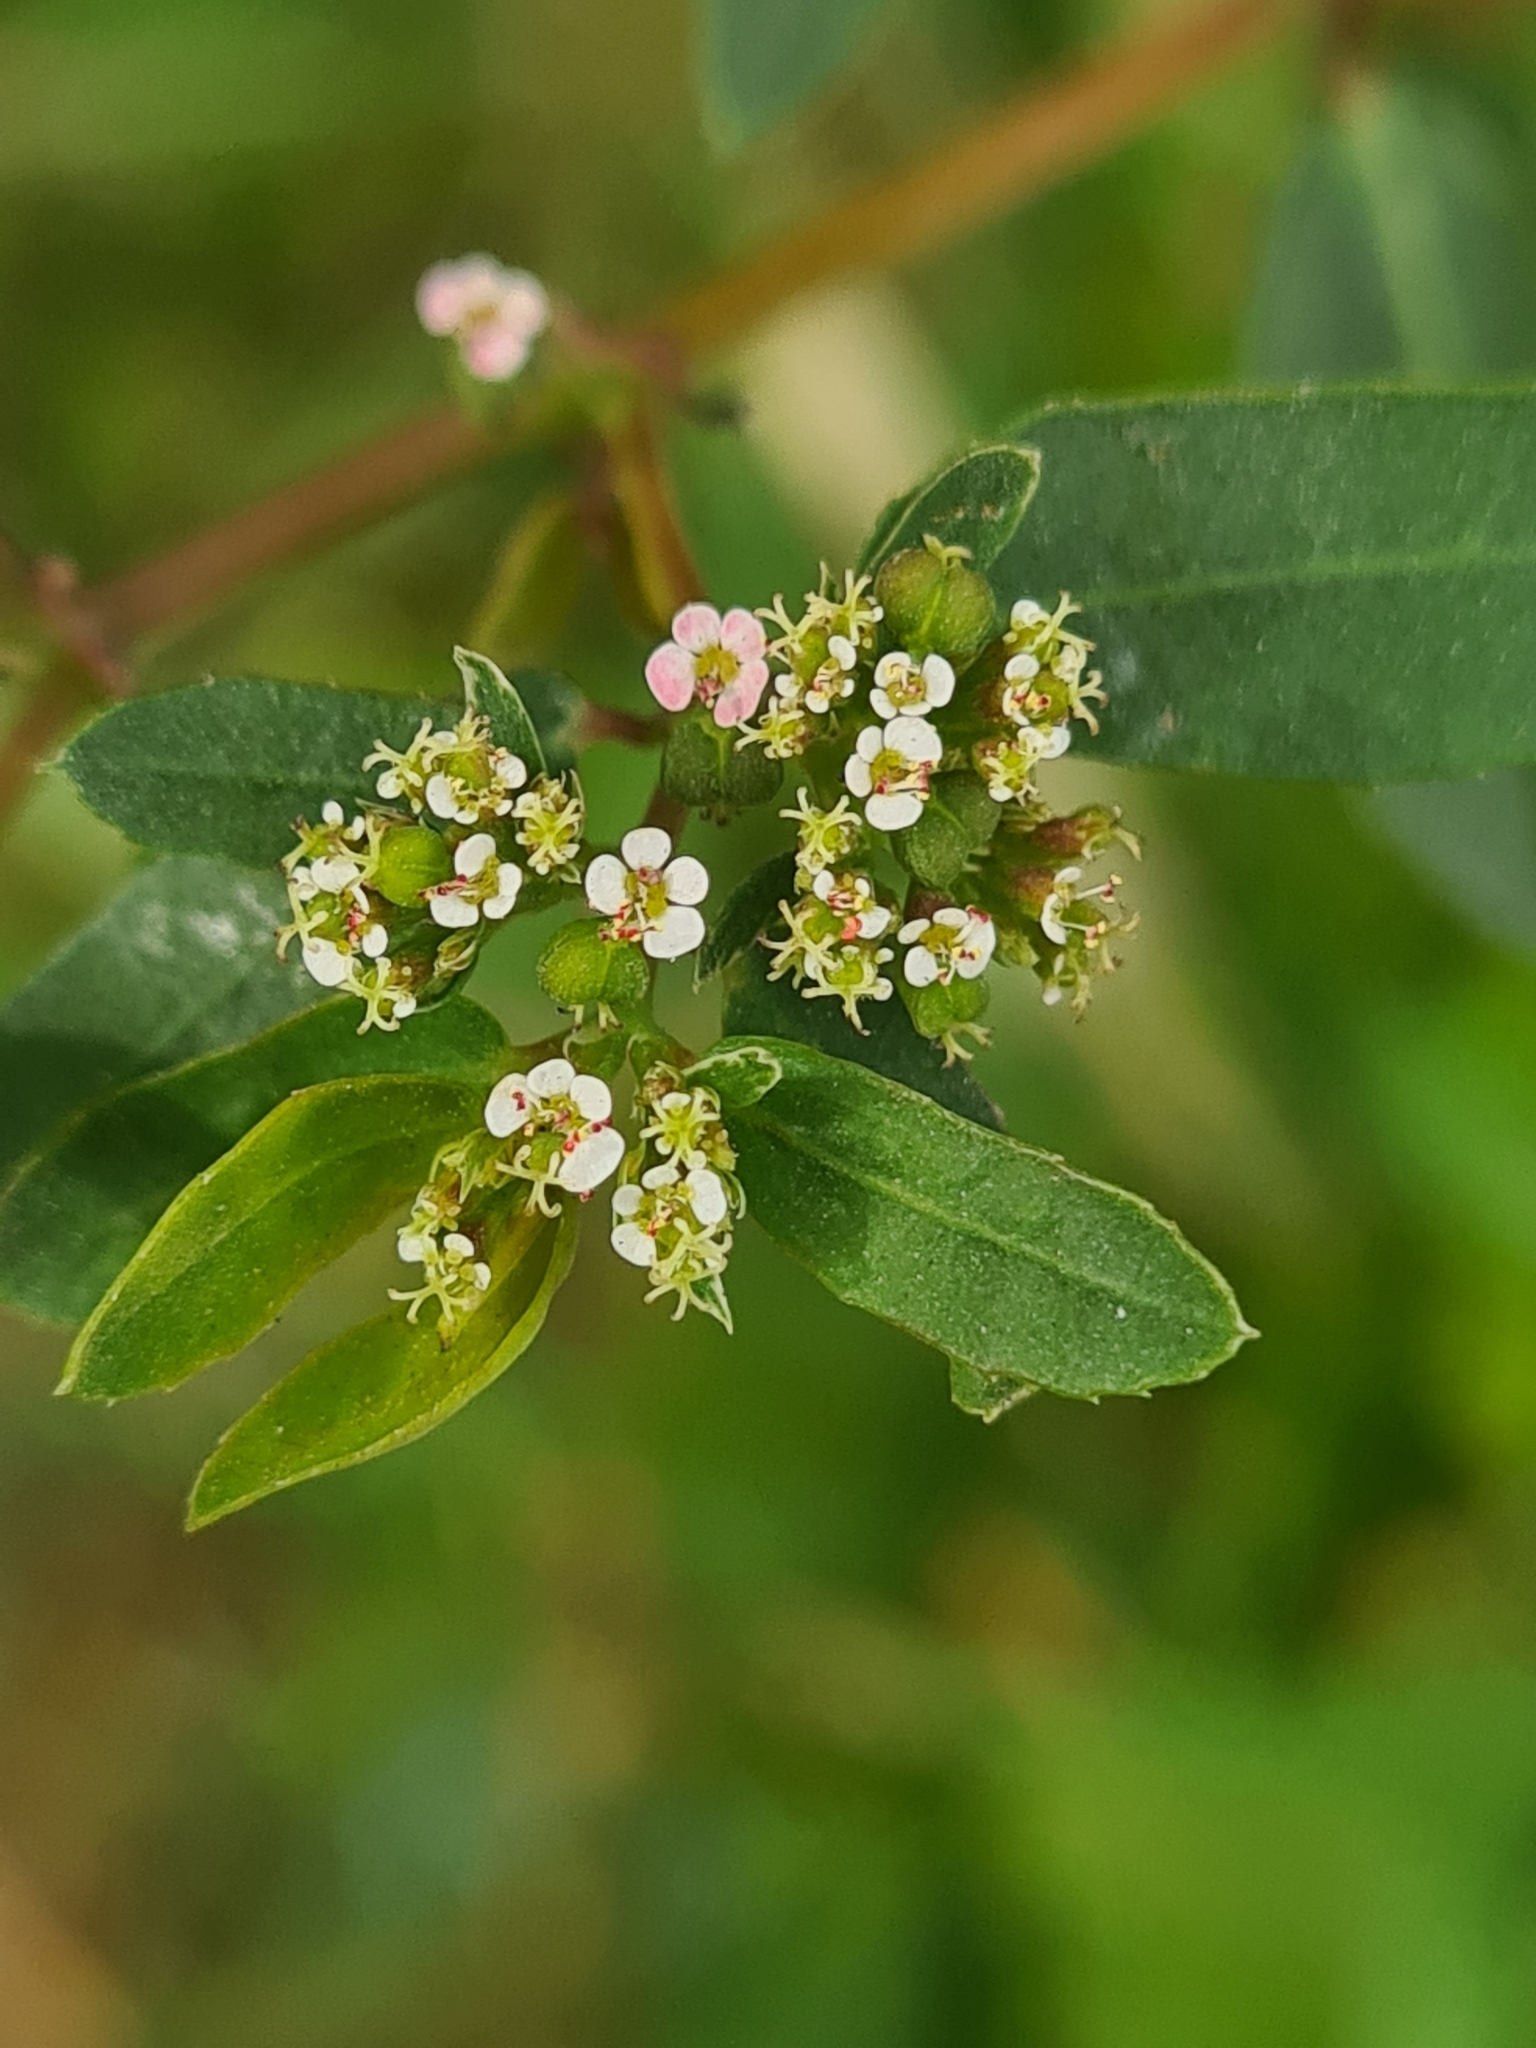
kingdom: Plantae
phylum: Tracheophyta
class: Magnoliopsida
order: Malpighiales
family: Euphorbiaceae
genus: Euphorbia
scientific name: Euphorbia hypericifolia
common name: Graceful sandmat
